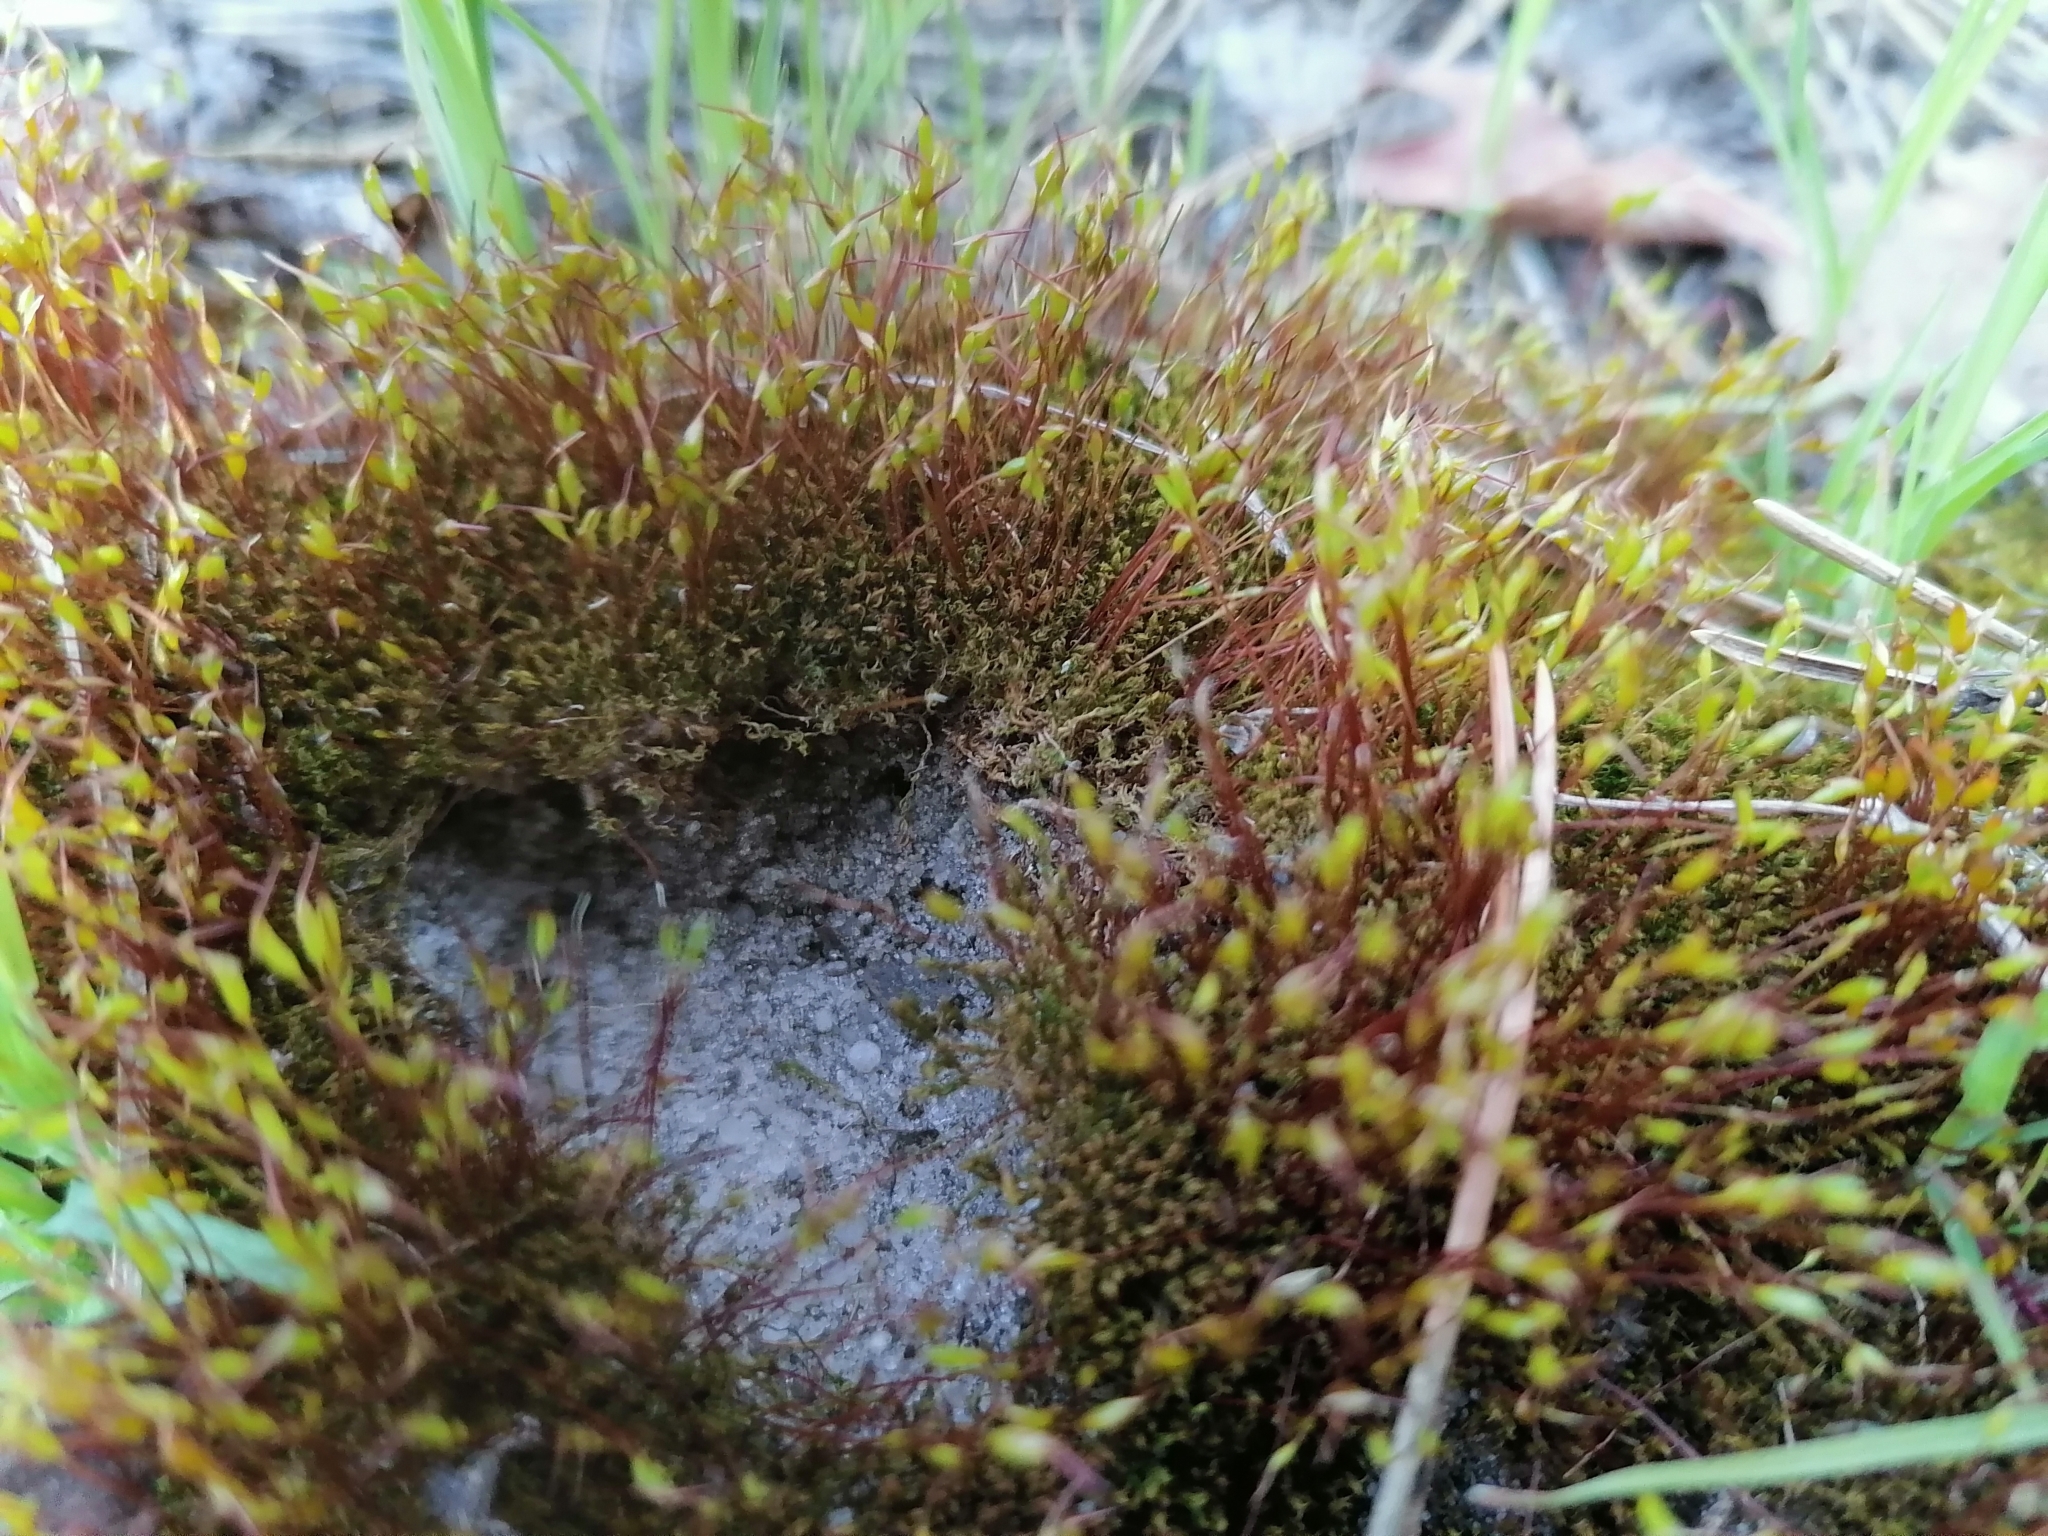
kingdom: Plantae
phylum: Bryophyta
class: Bryopsida
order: Dicranales
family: Ditrichaceae
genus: Ceratodon
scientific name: Ceratodon purpureus
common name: Redshank
